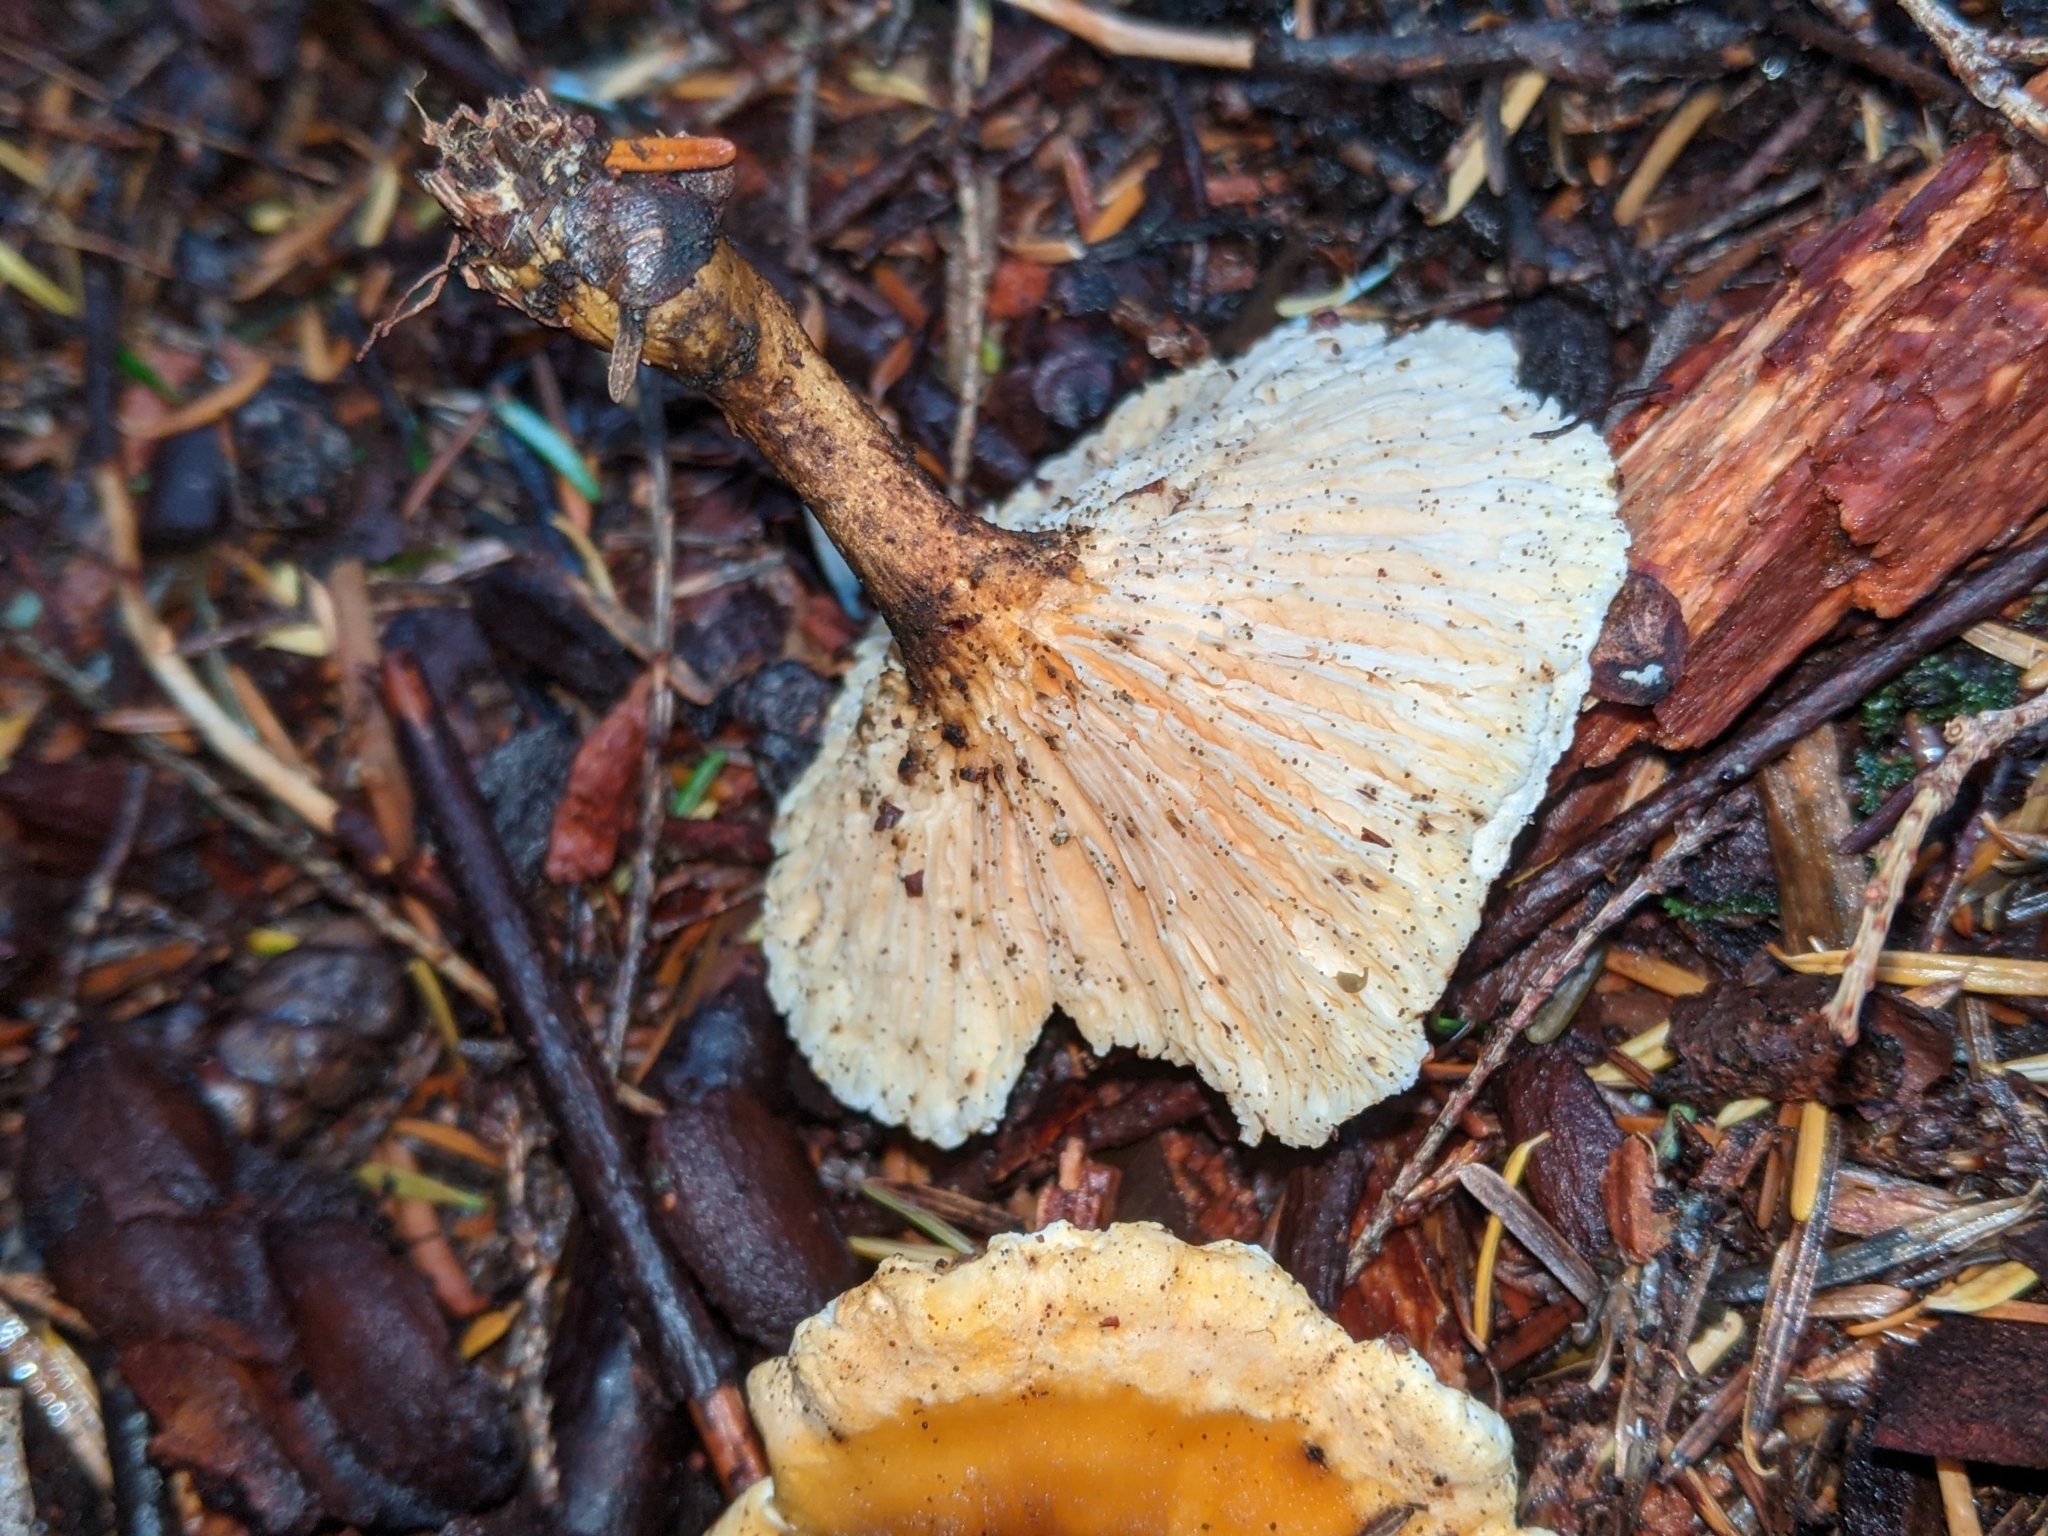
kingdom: Fungi
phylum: Basidiomycota
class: Agaricomycetes
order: Boletales
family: Hygrophoropsidaceae
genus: Hygrophoropsis
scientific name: Hygrophoropsis aurantiaca
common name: False chanterelle
